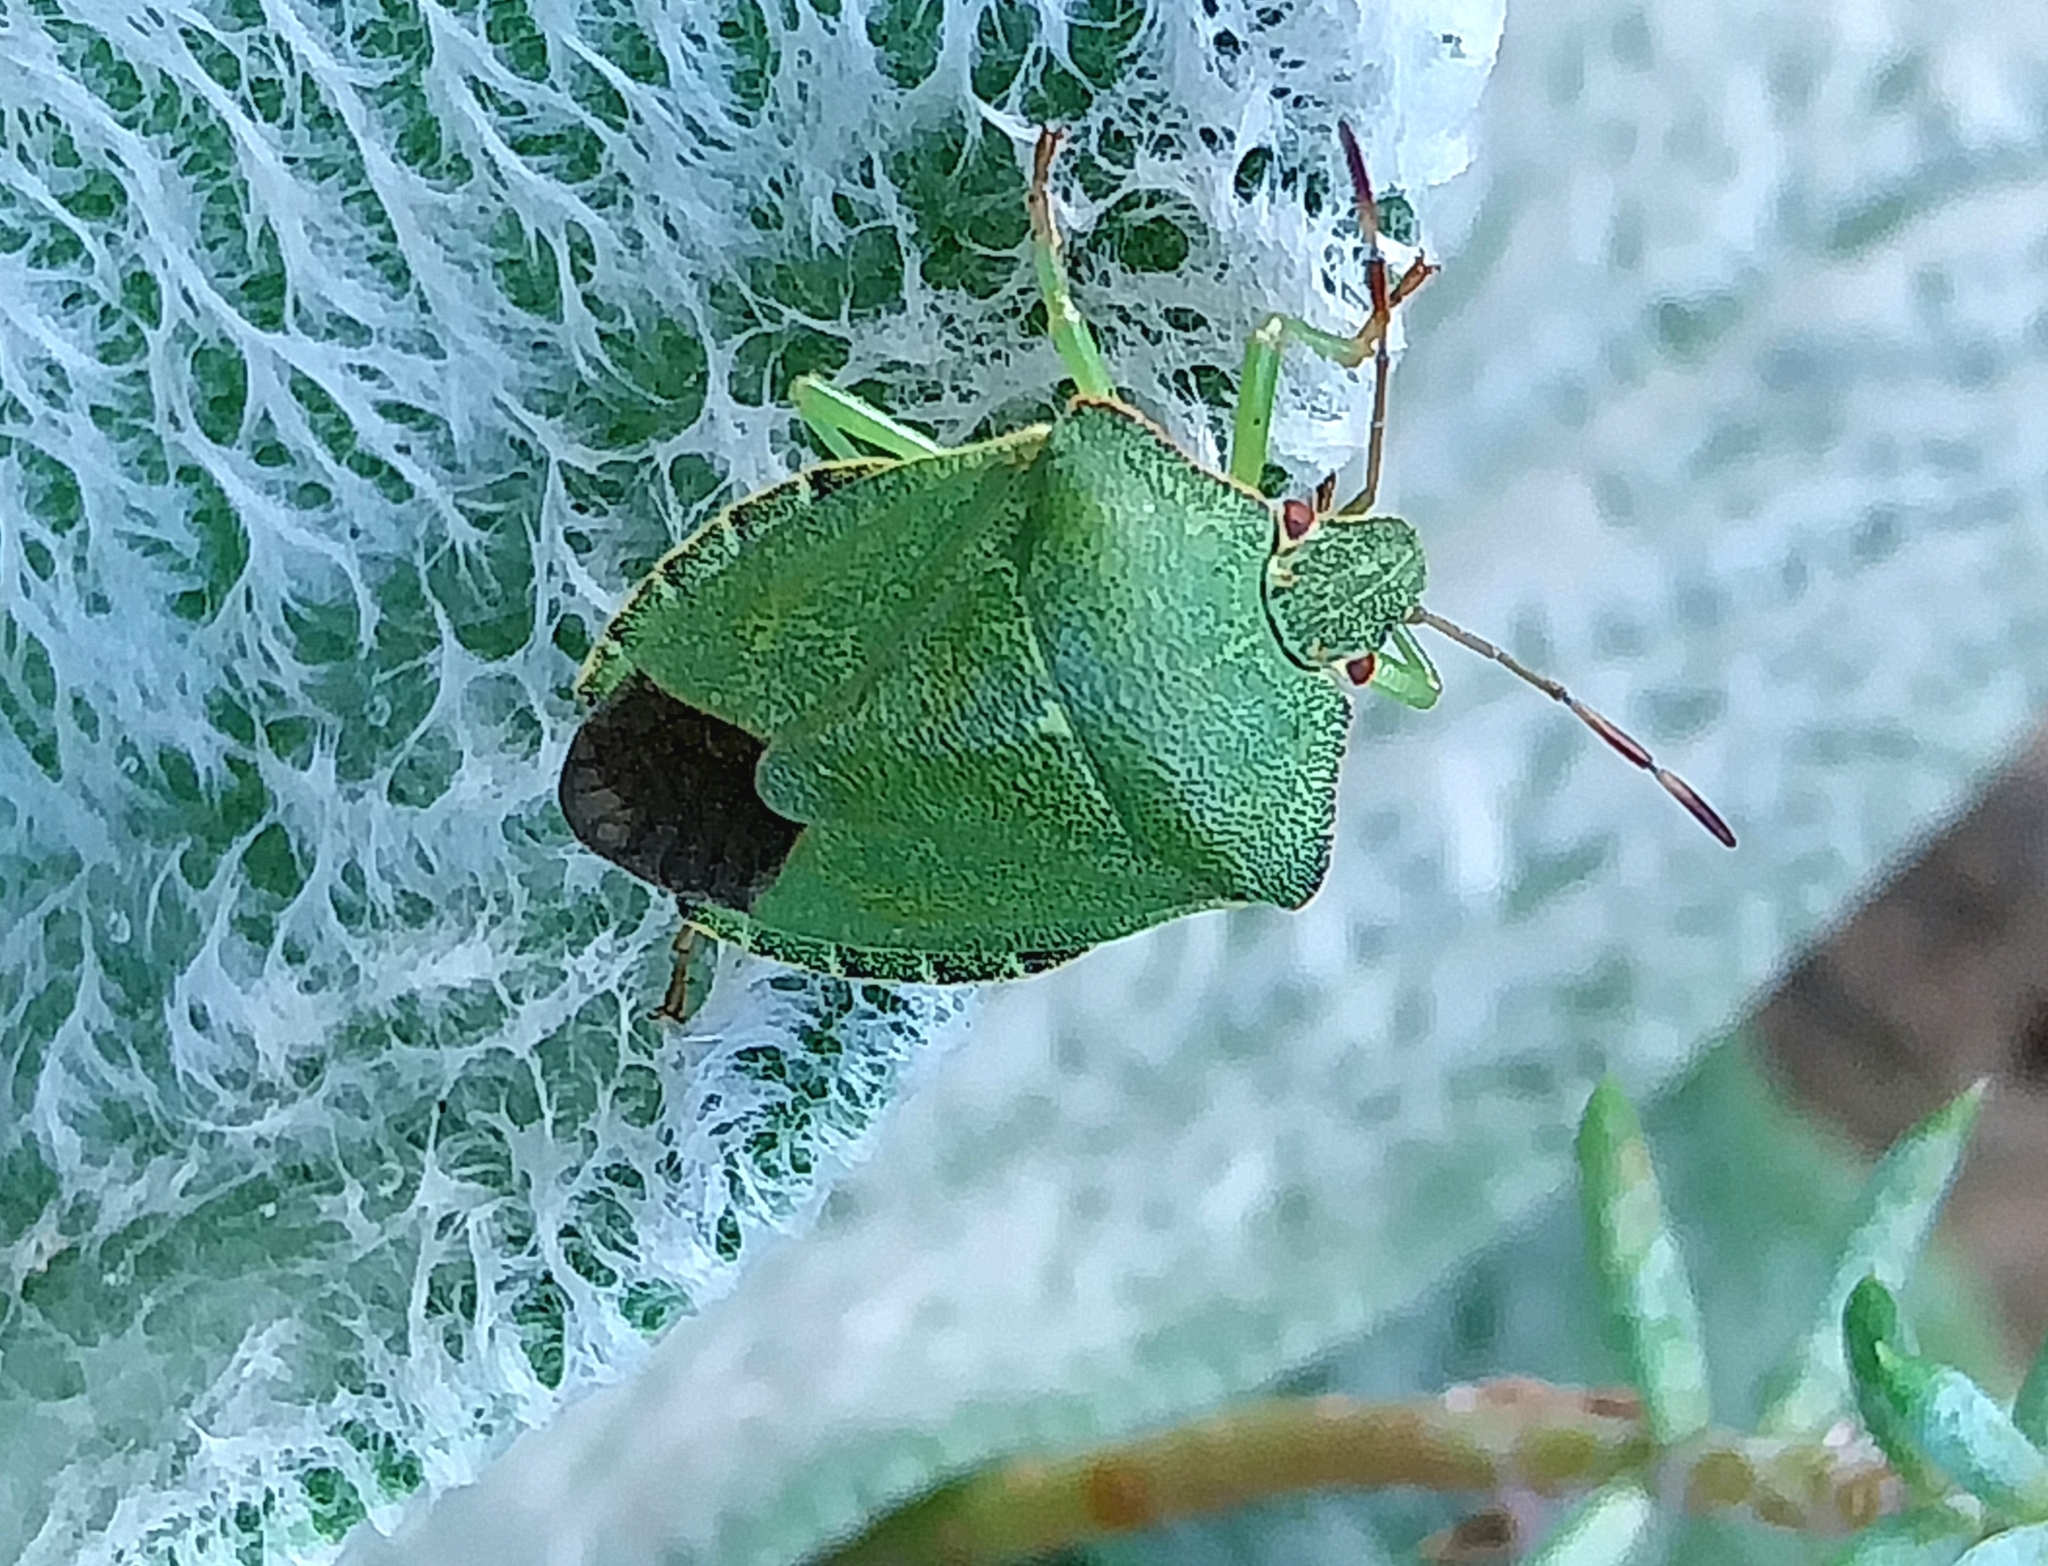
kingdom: Animalia
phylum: Arthropoda
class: Insecta
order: Hemiptera
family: Pentatomidae
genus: Palomena
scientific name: Palomena prasina
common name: Green shieldbug
